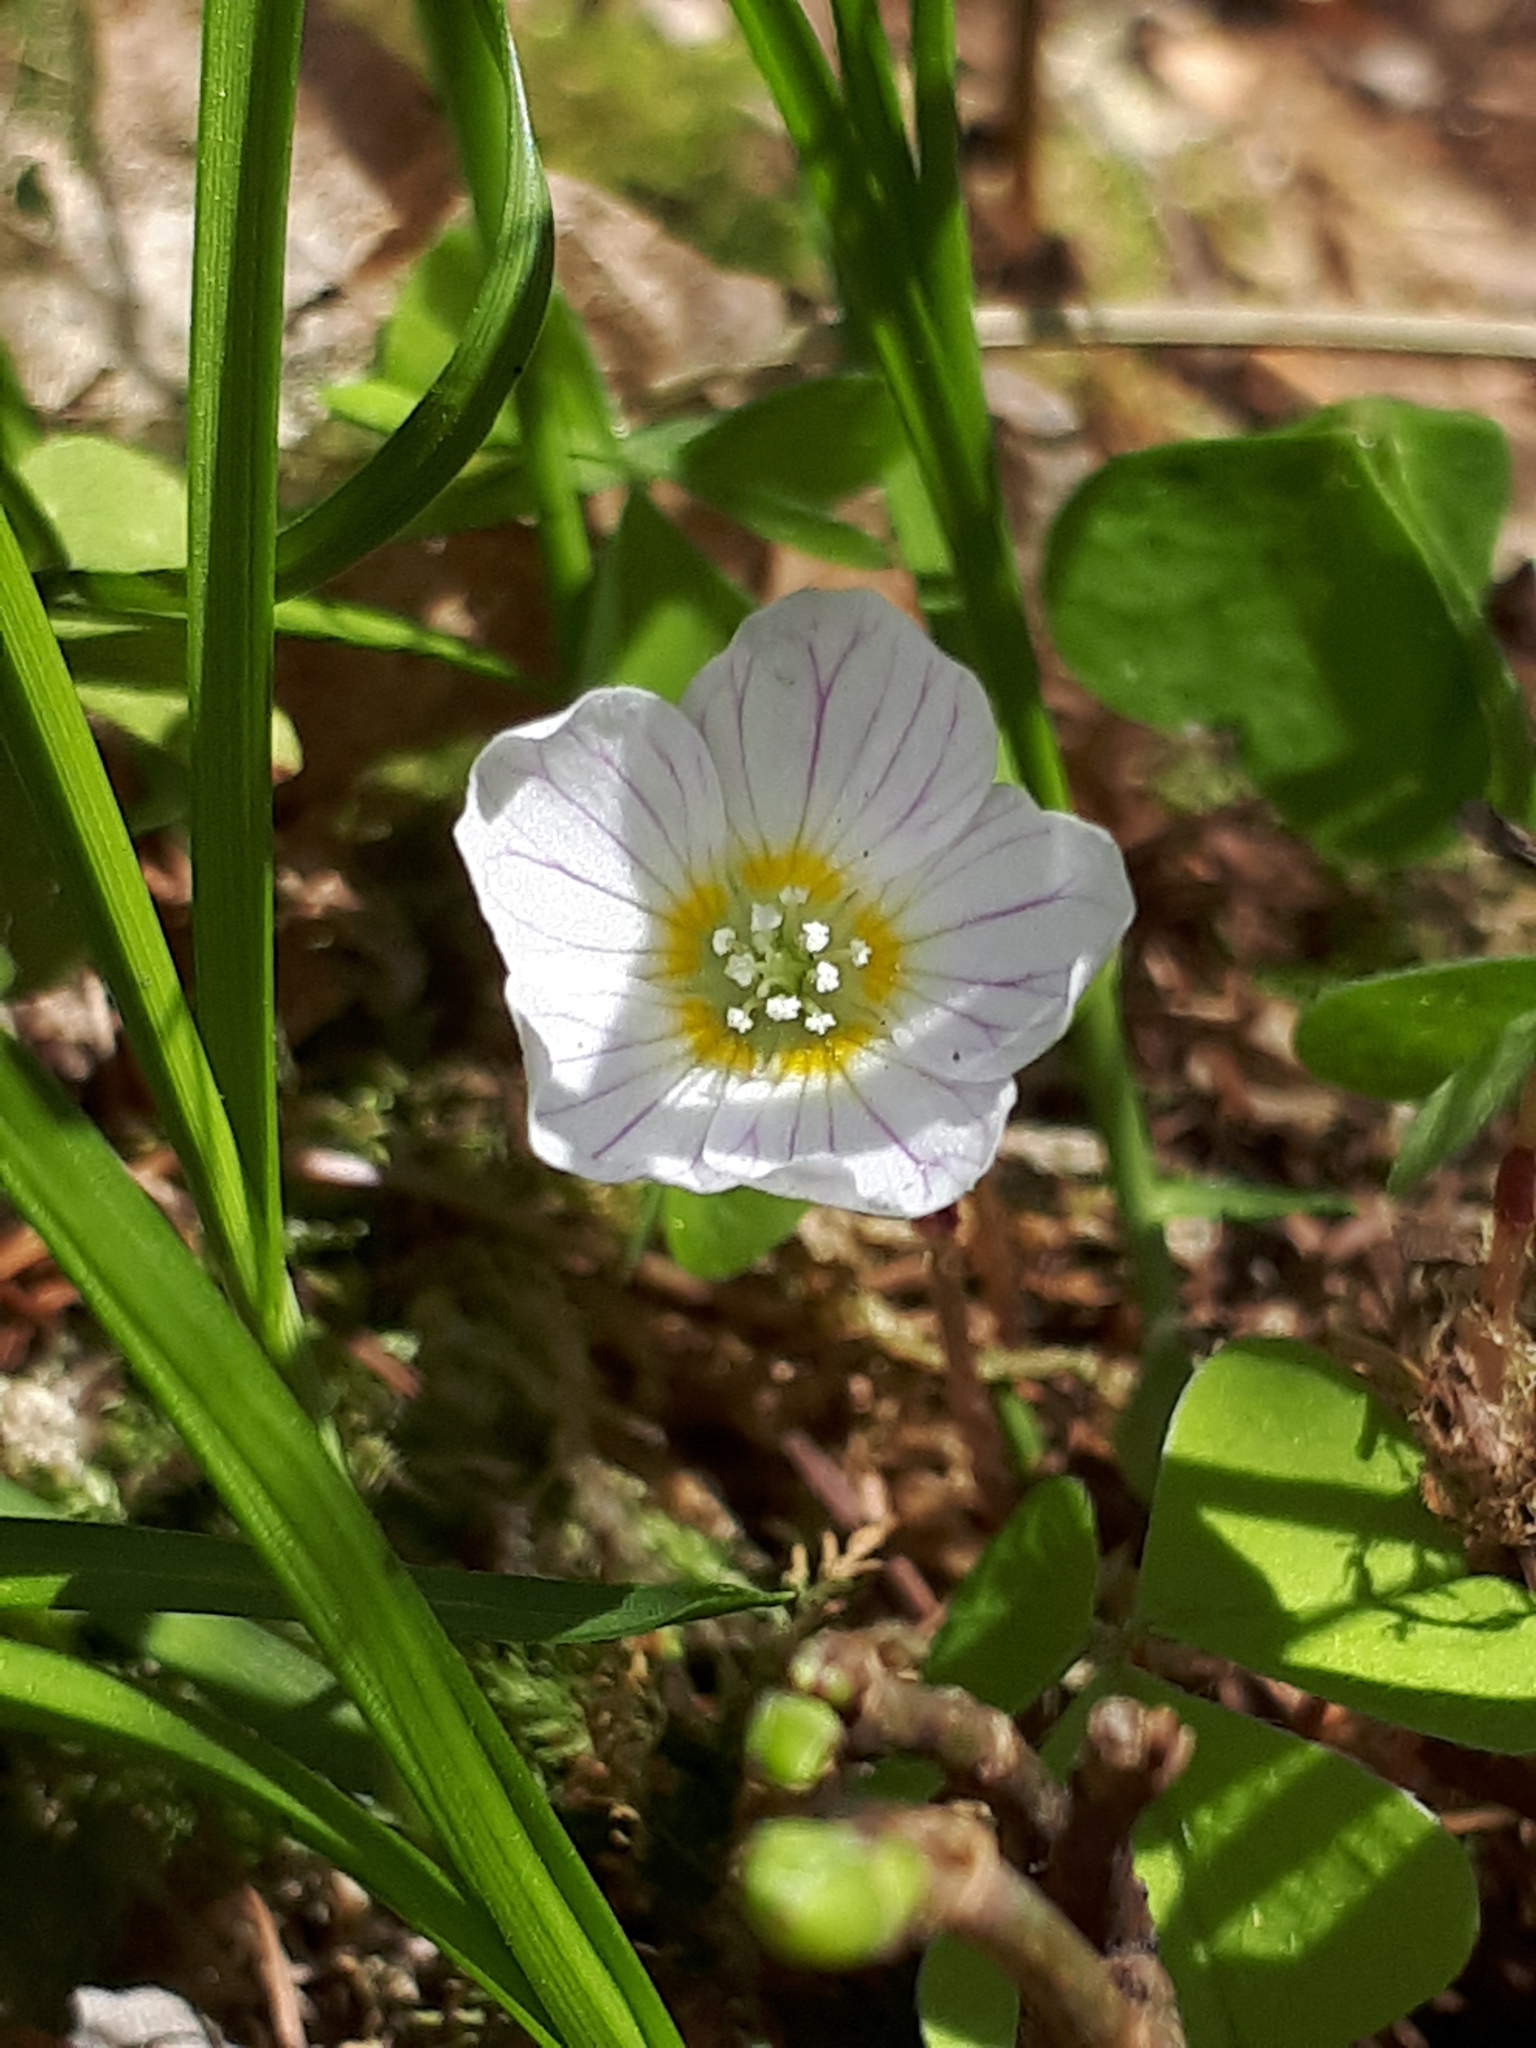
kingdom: Plantae
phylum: Tracheophyta
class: Magnoliopsida
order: Oxalidales
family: Oxalidaceae
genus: Oxalis
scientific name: Oxalis acetosella
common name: Wood-sorrel
